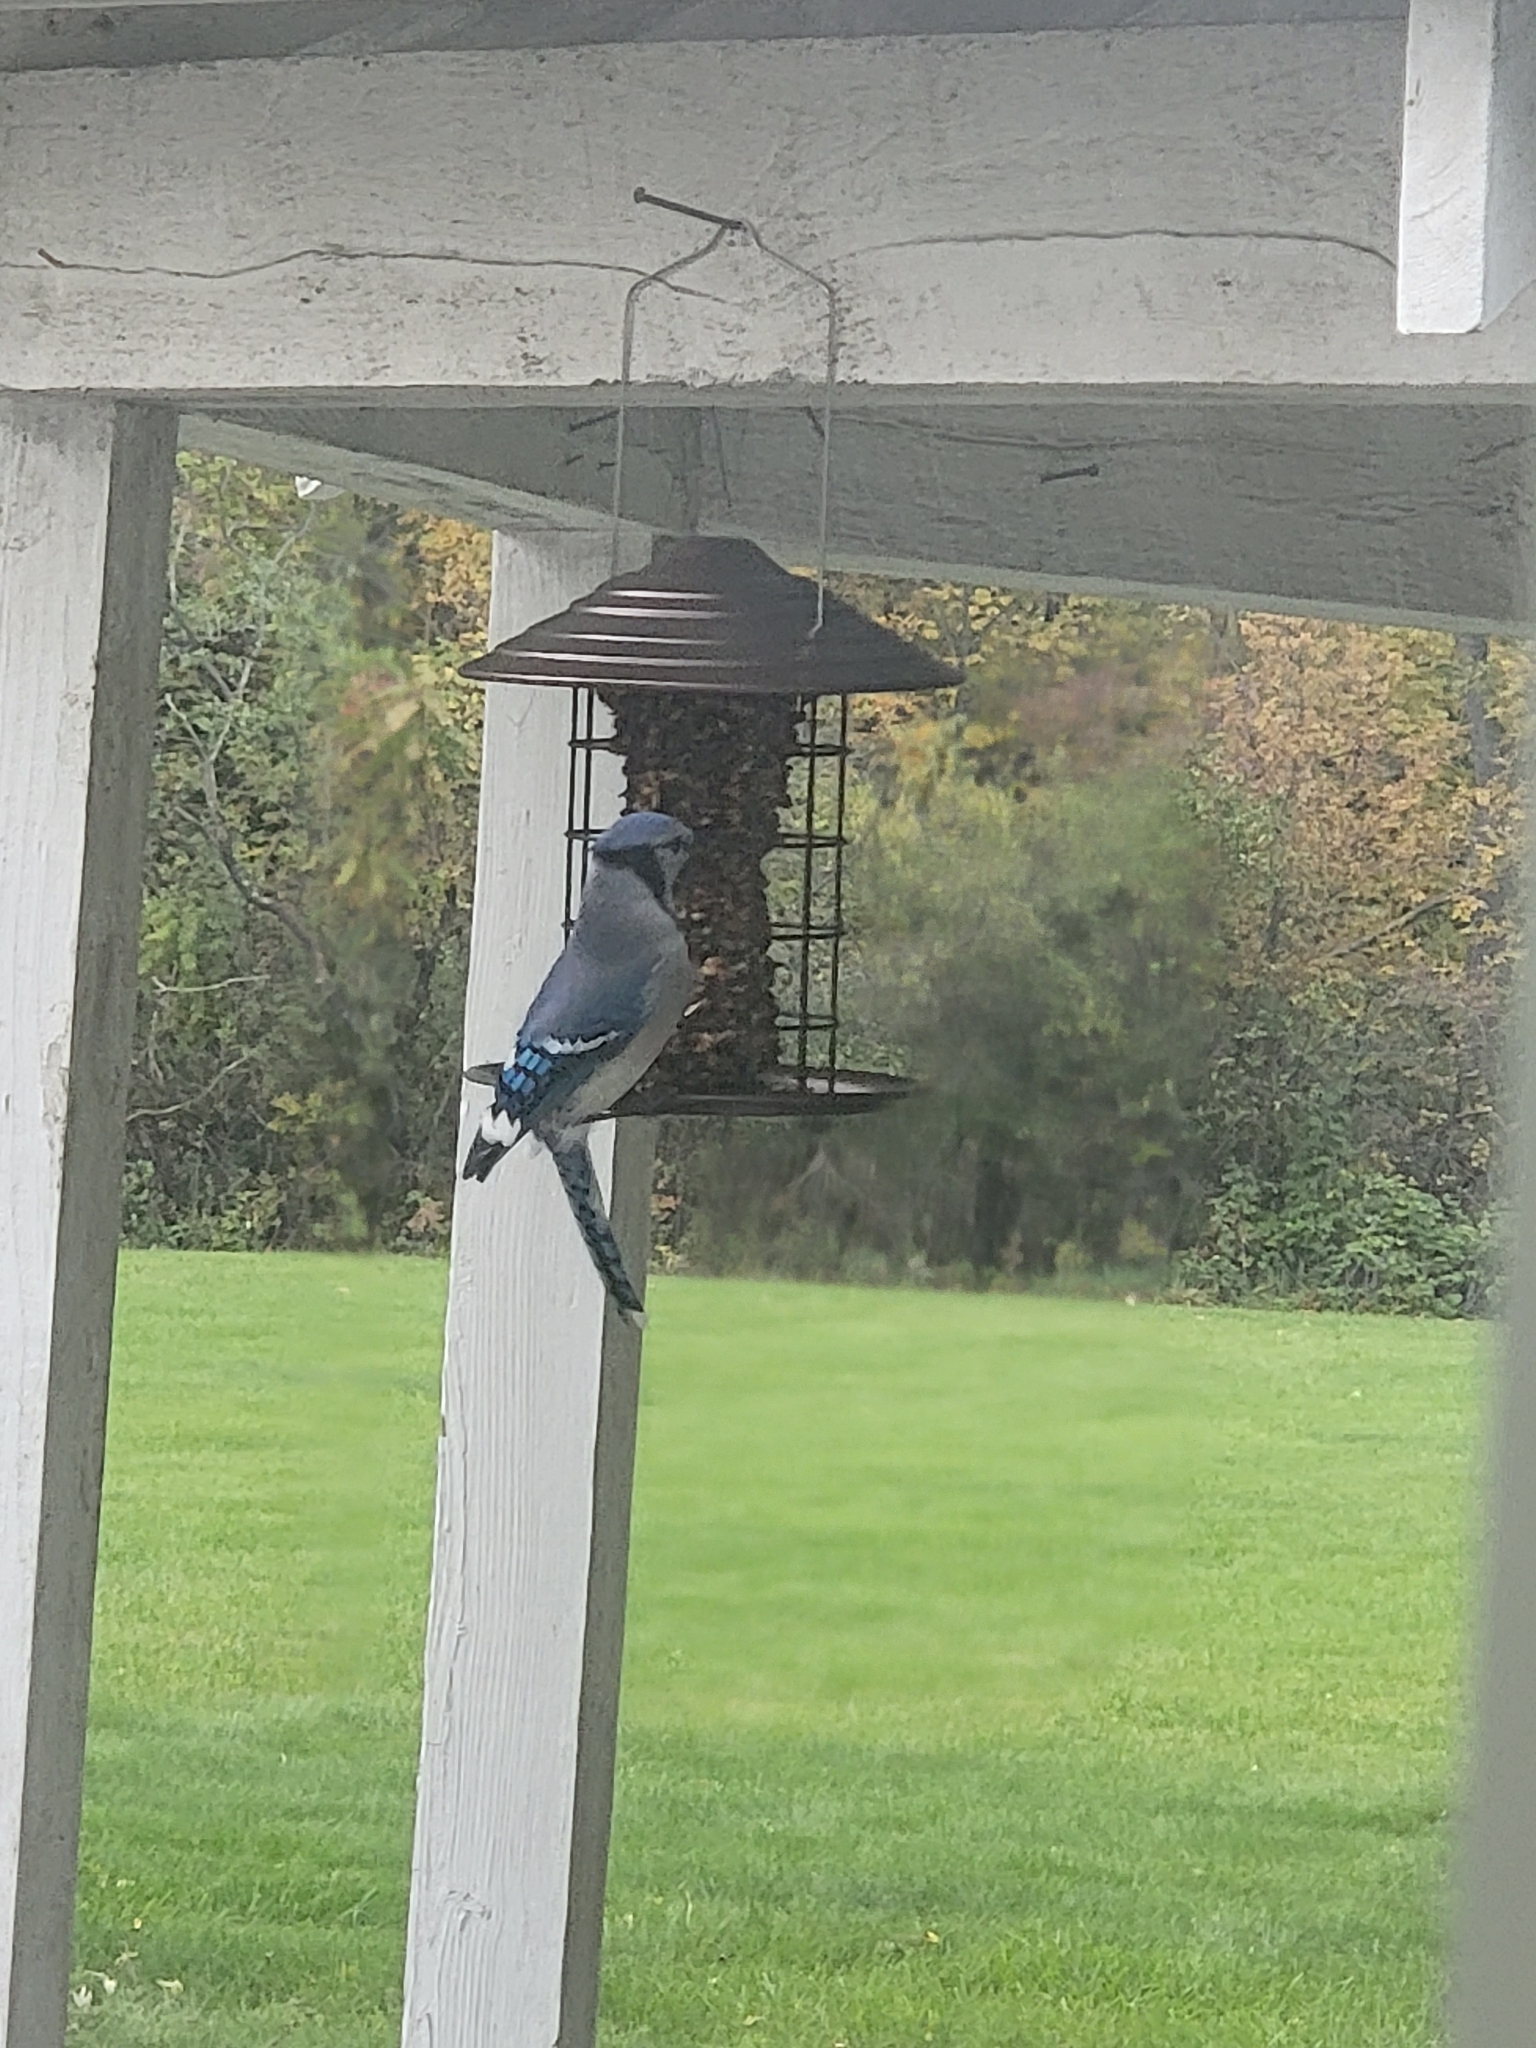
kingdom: Animalia
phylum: Chordata
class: Aves
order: Passeriformes
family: Corvidae
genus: Cyanocitta
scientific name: Cyanocitta cristata
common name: Blue jay
